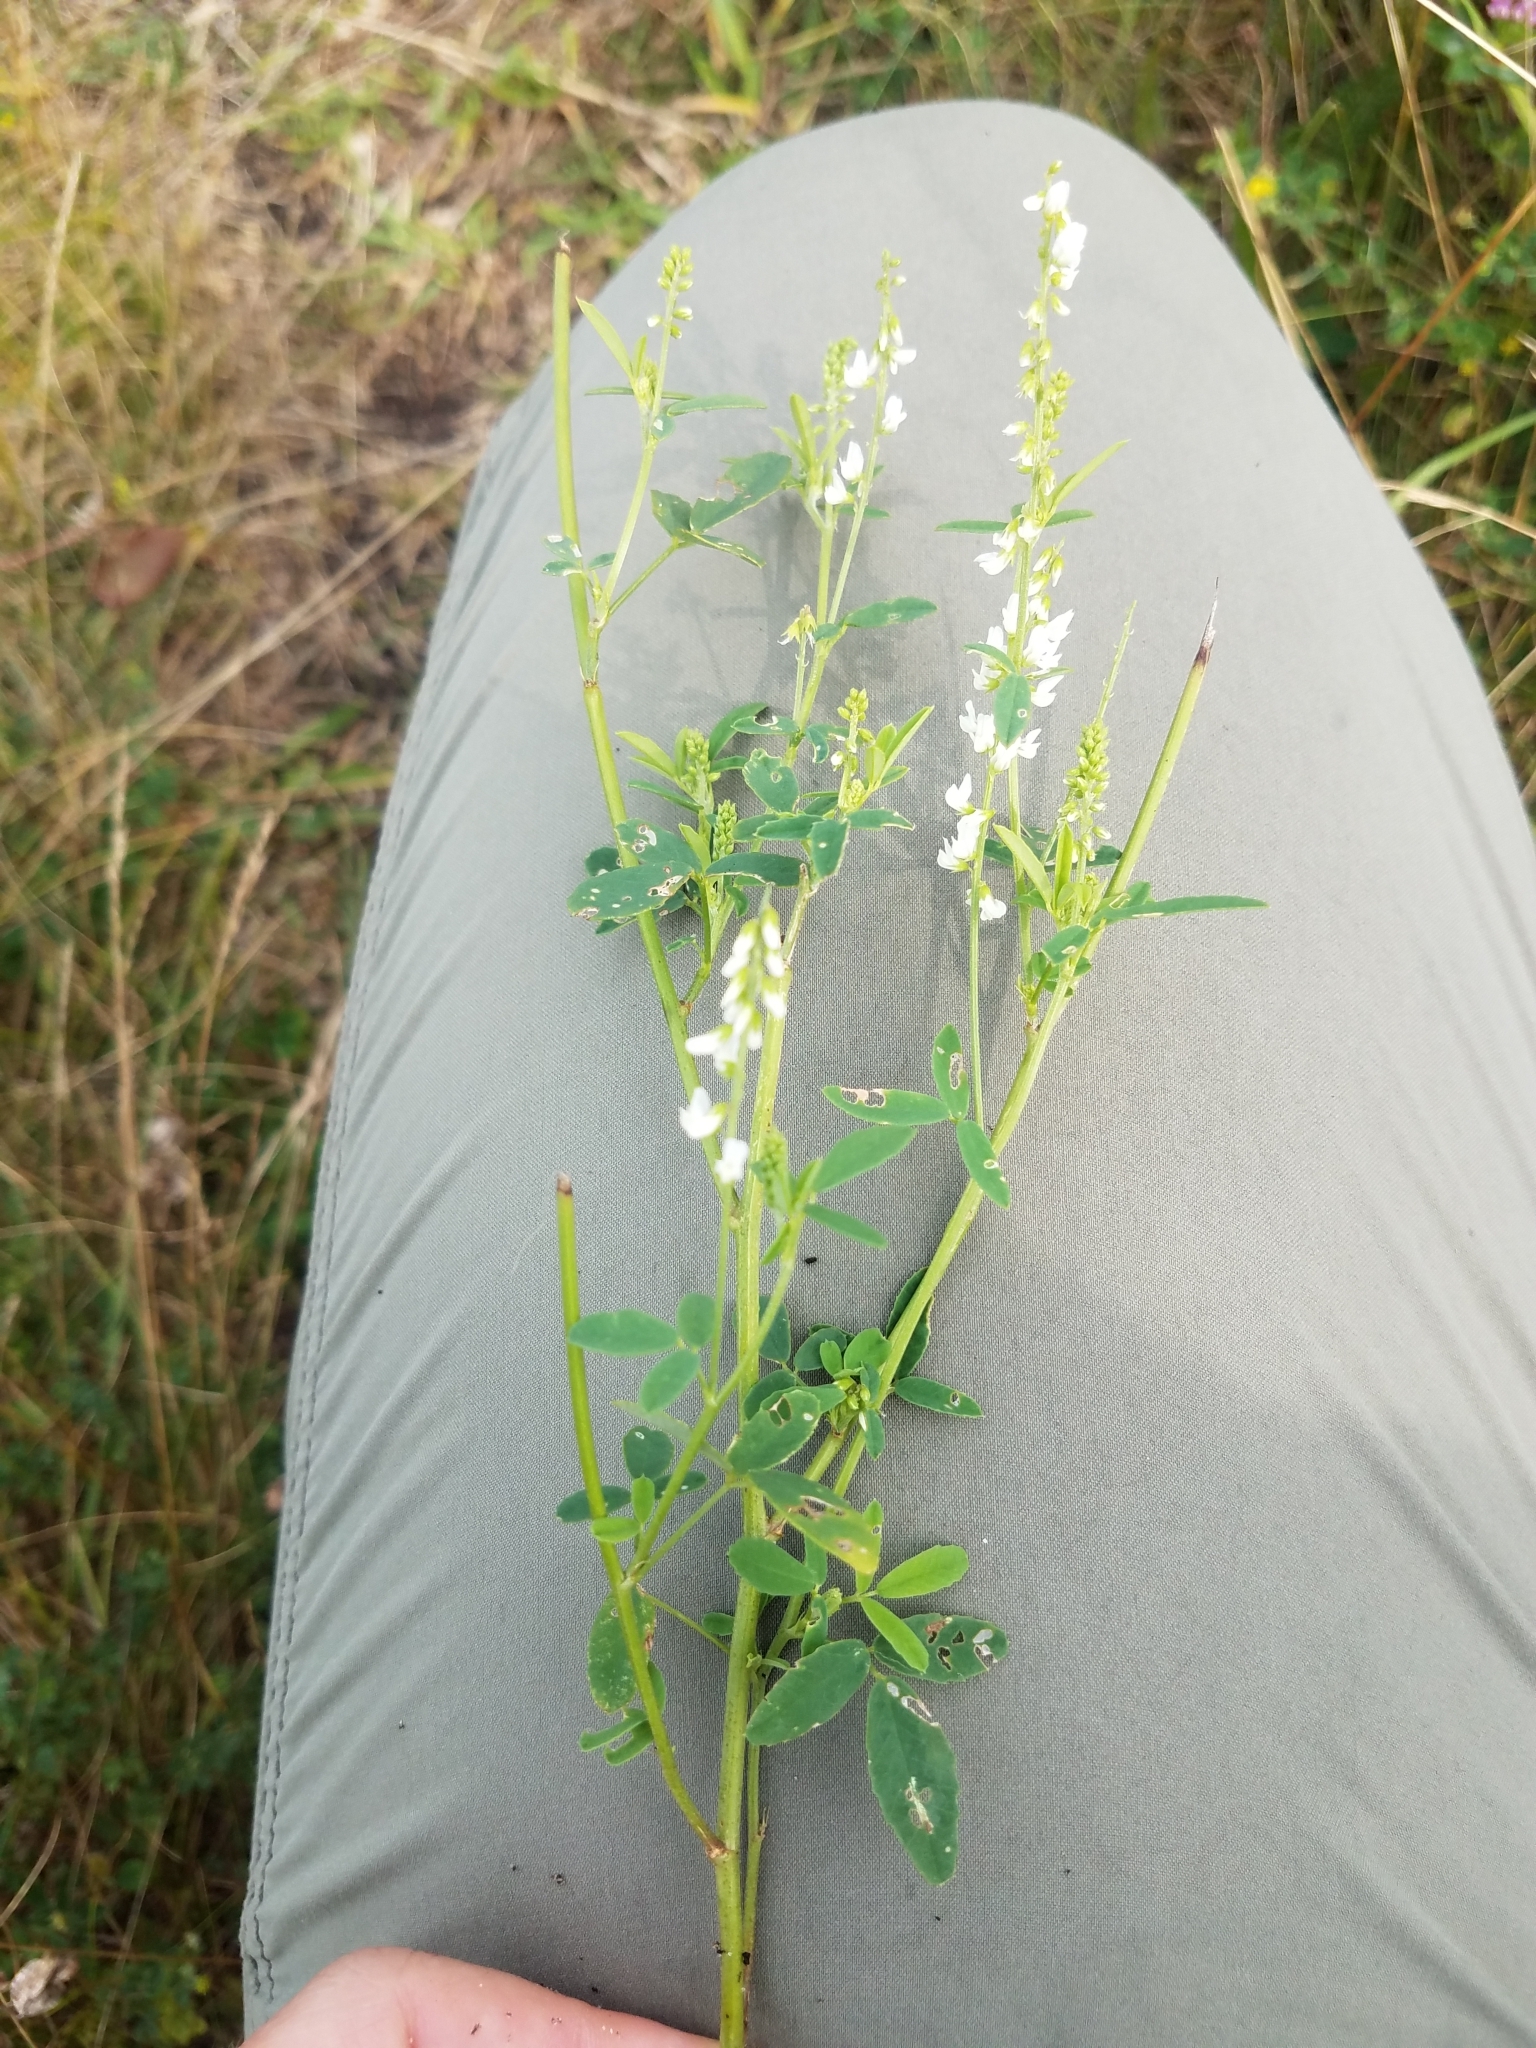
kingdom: Plantae
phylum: Tracheophyta
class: Magnoliopsida
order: Fabales
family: Fabaceae
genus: Melilotus
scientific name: Melilotus albus
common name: White melilot
